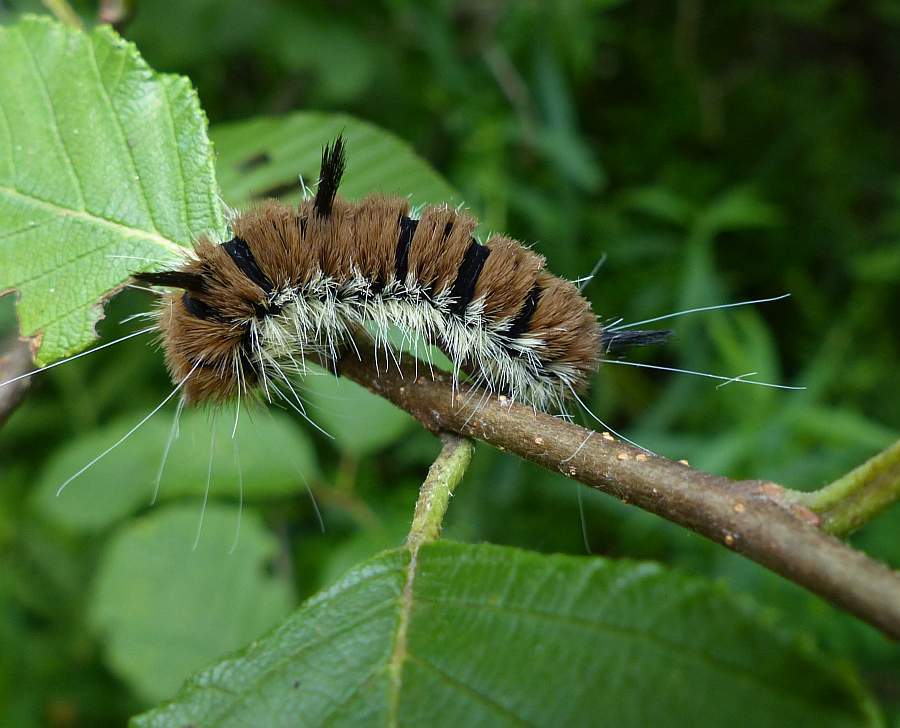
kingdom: Animalia
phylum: Arthropoda
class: Insecta
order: Lepidoptera
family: Noctuidae
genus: Acronicta
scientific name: Acronicta insita
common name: Large gray dagger
